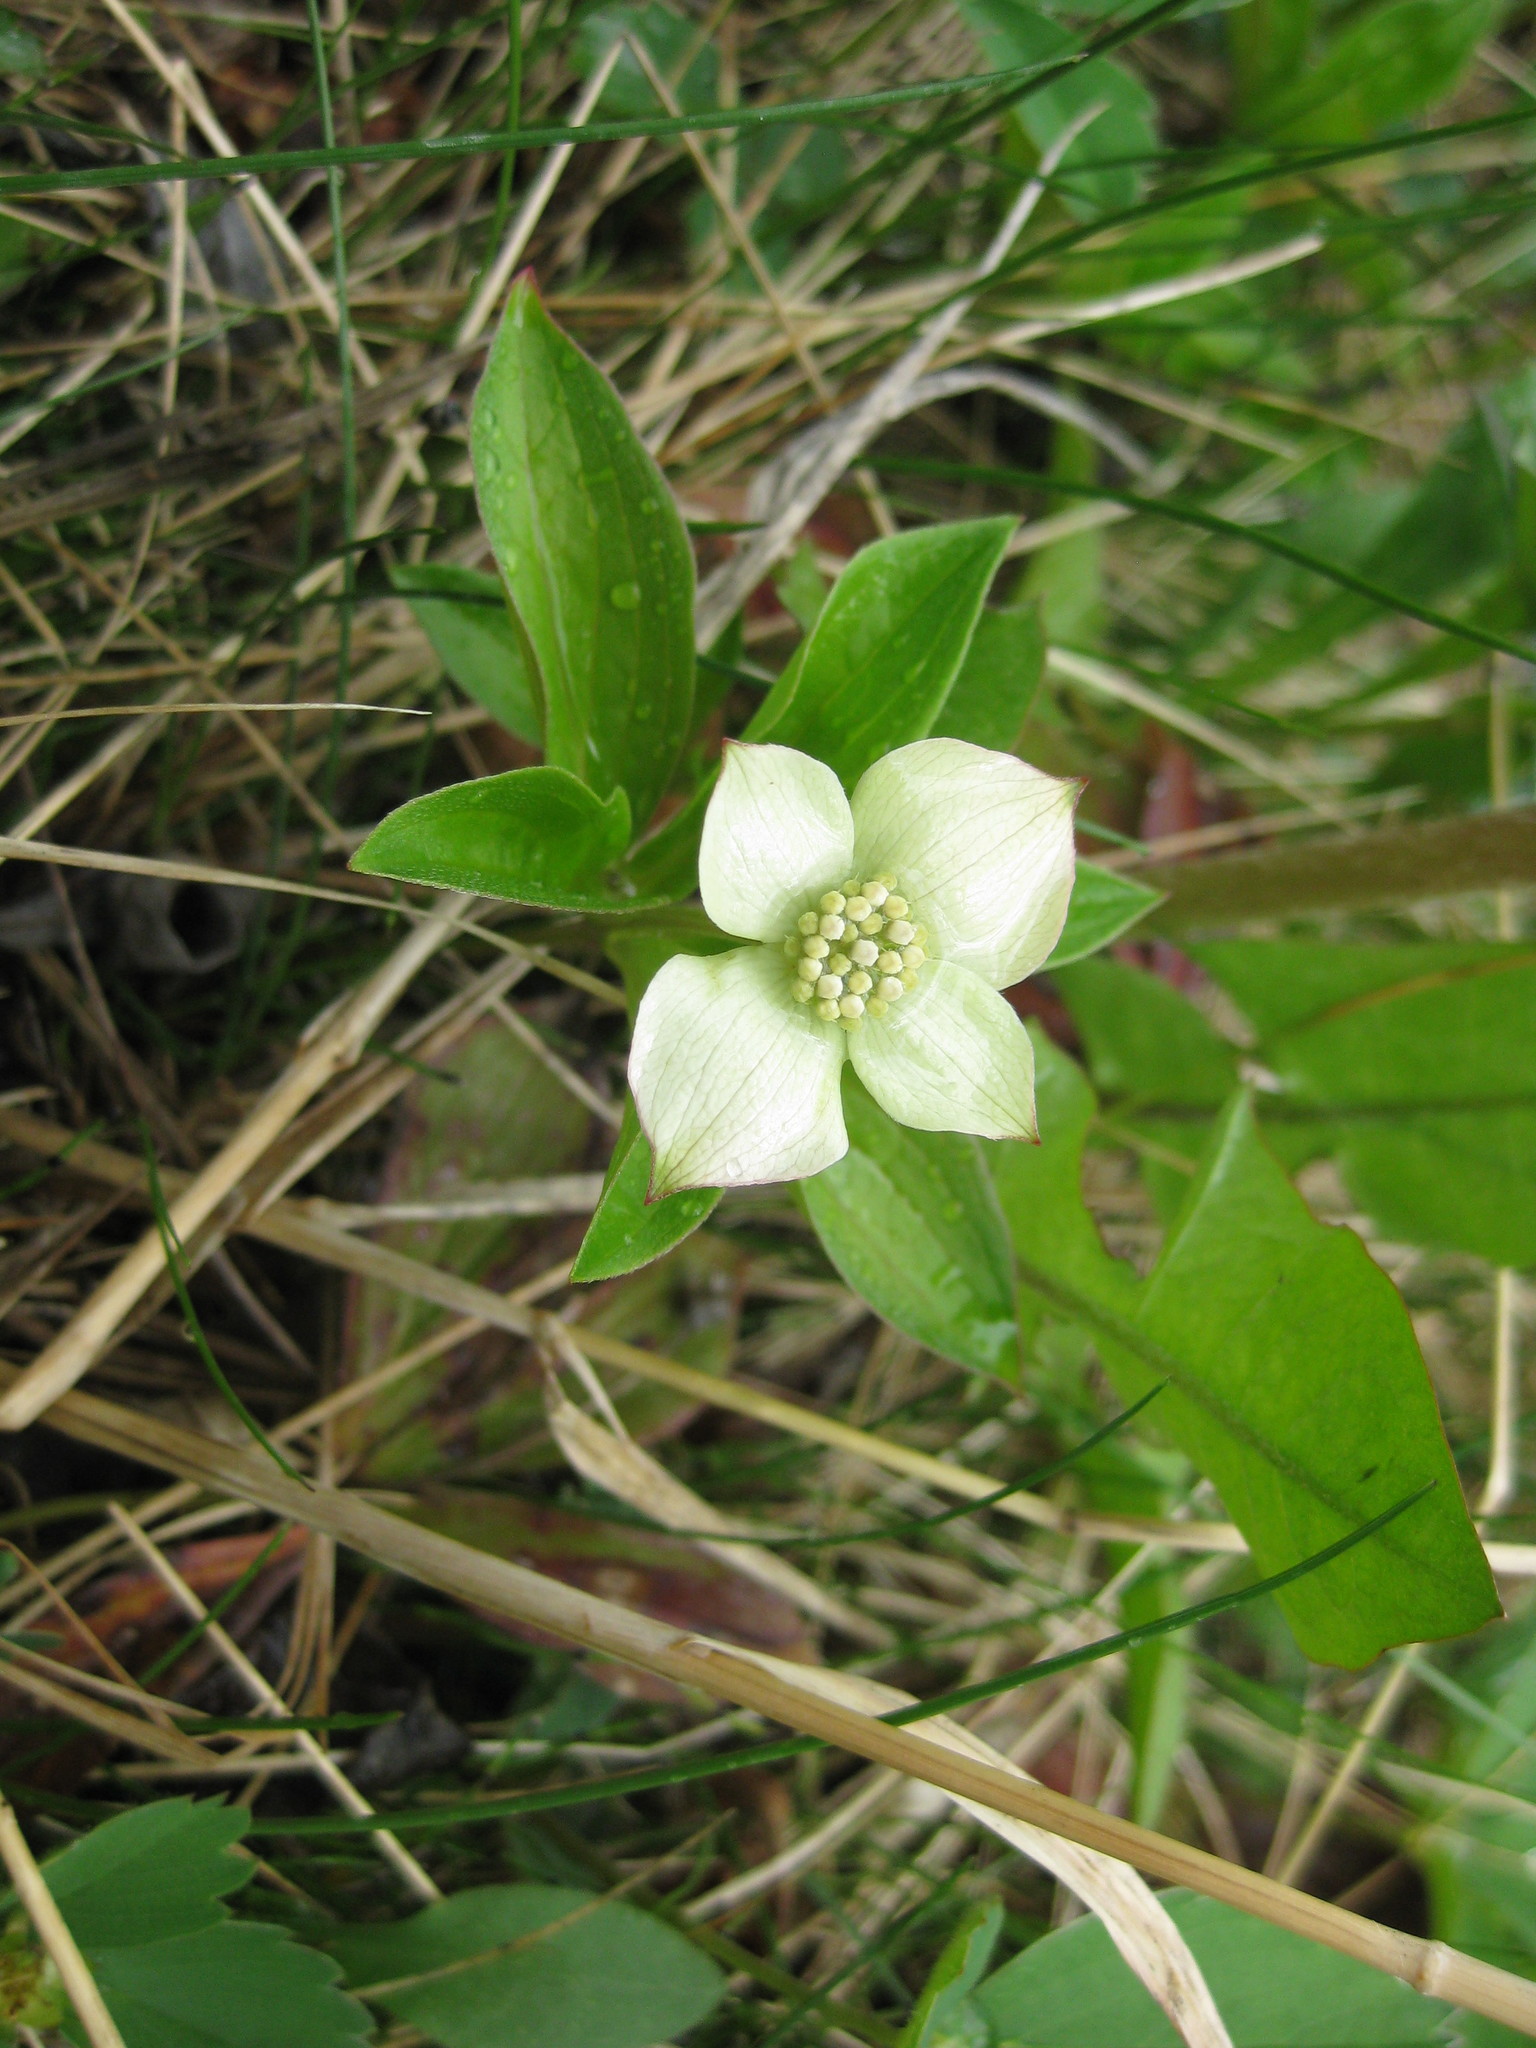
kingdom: Plantae
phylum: Tracheophyta
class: Magnoliopsida
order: Cornales
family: Cornaceae
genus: Cornus
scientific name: Cornus canadensis
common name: Creeping dogwood
